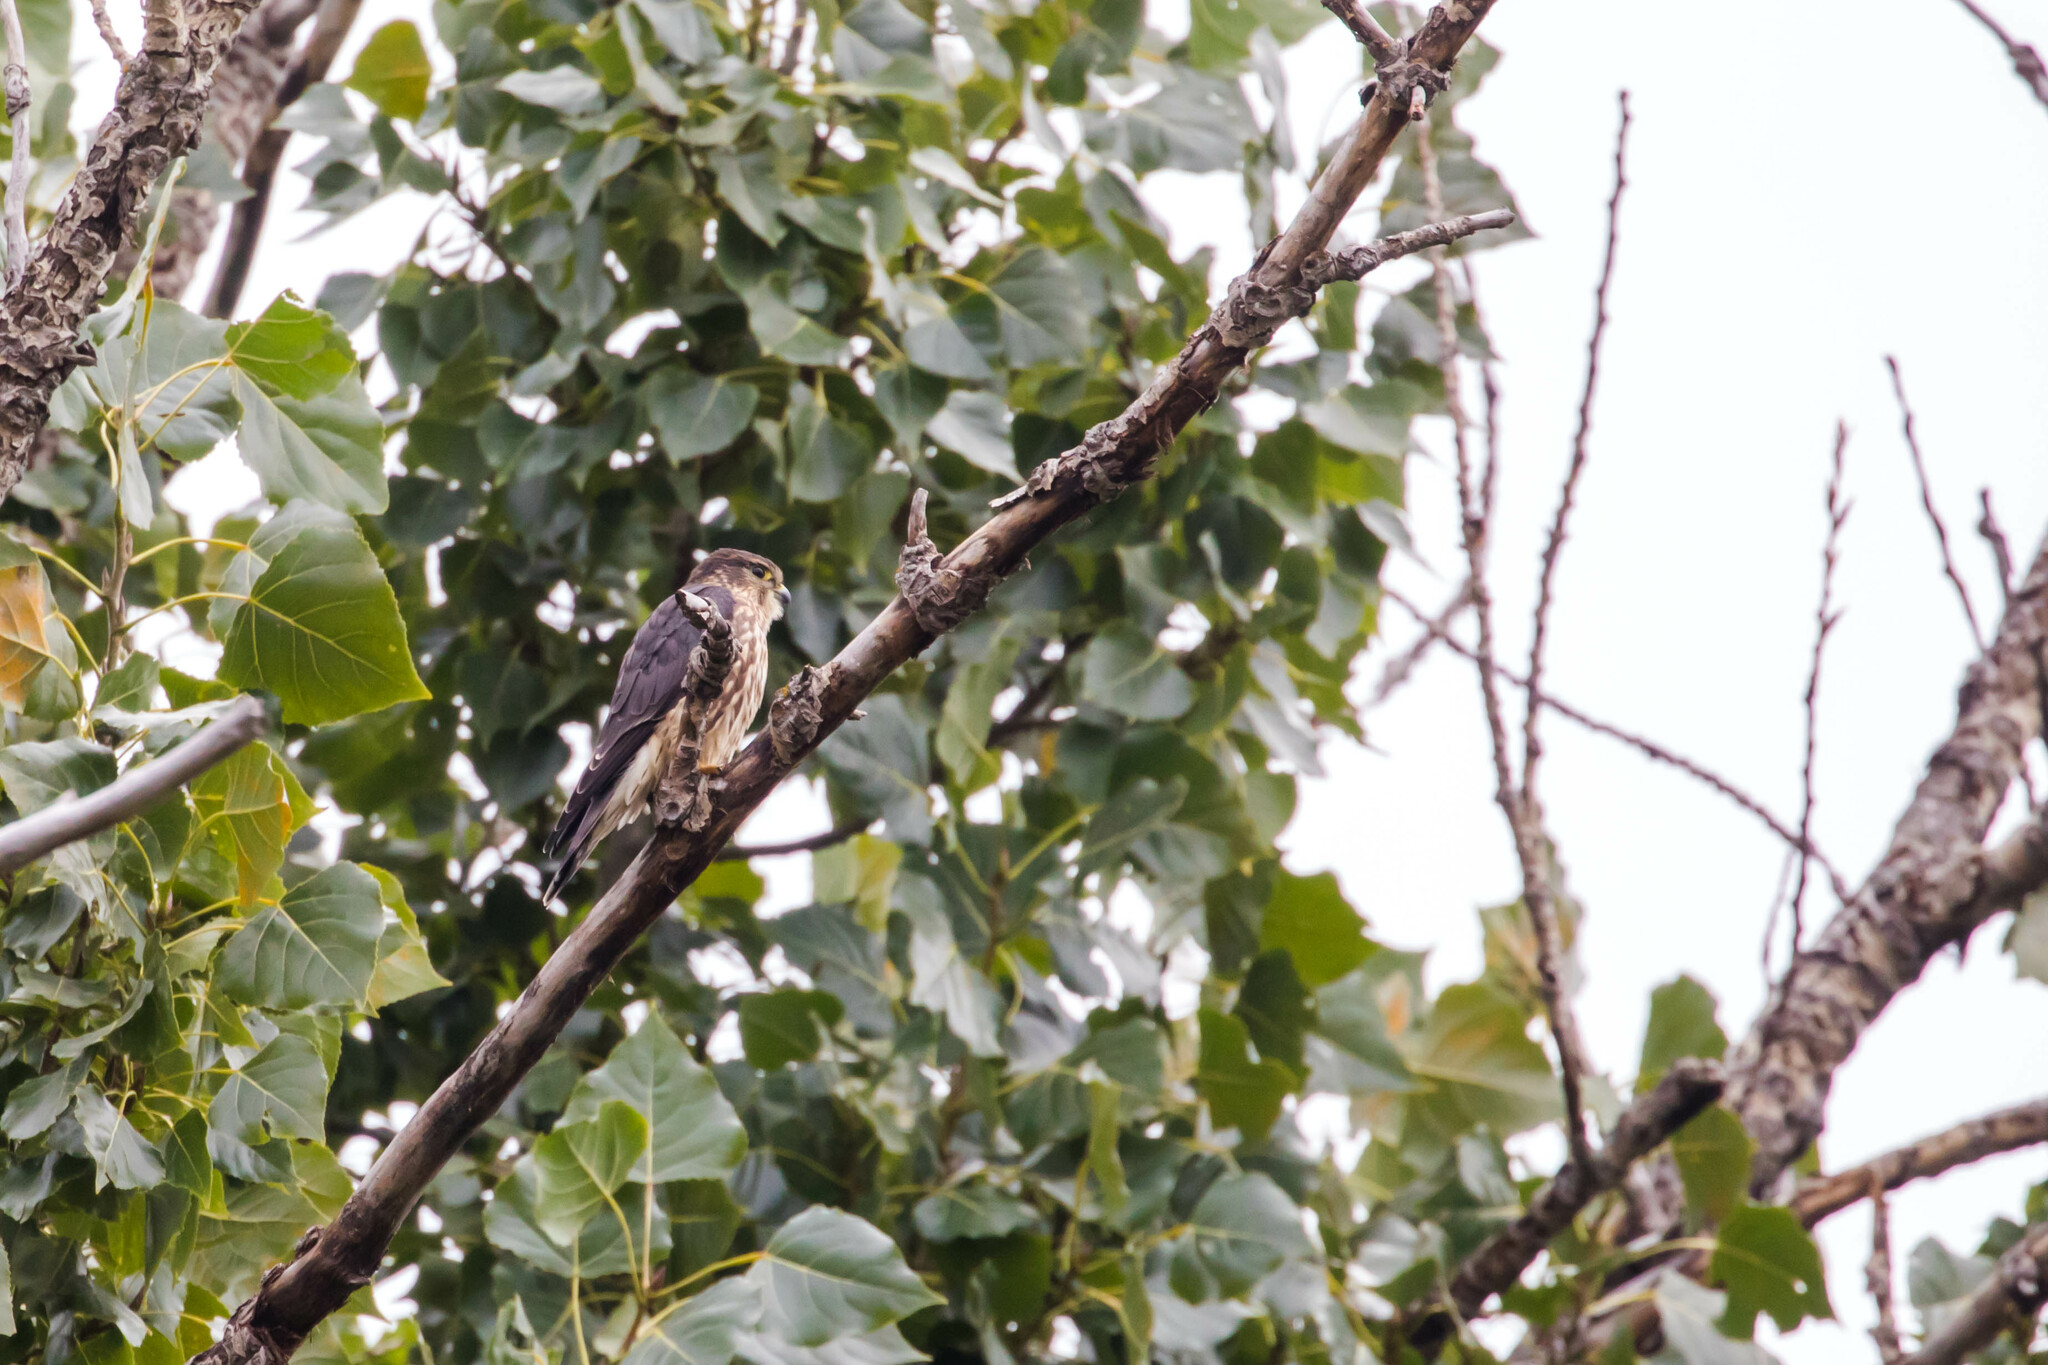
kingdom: Animalia
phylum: Chordata
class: Aves
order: Falconiformes
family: Falconidae
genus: Falco
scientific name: Falco columbarius
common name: Merlin
